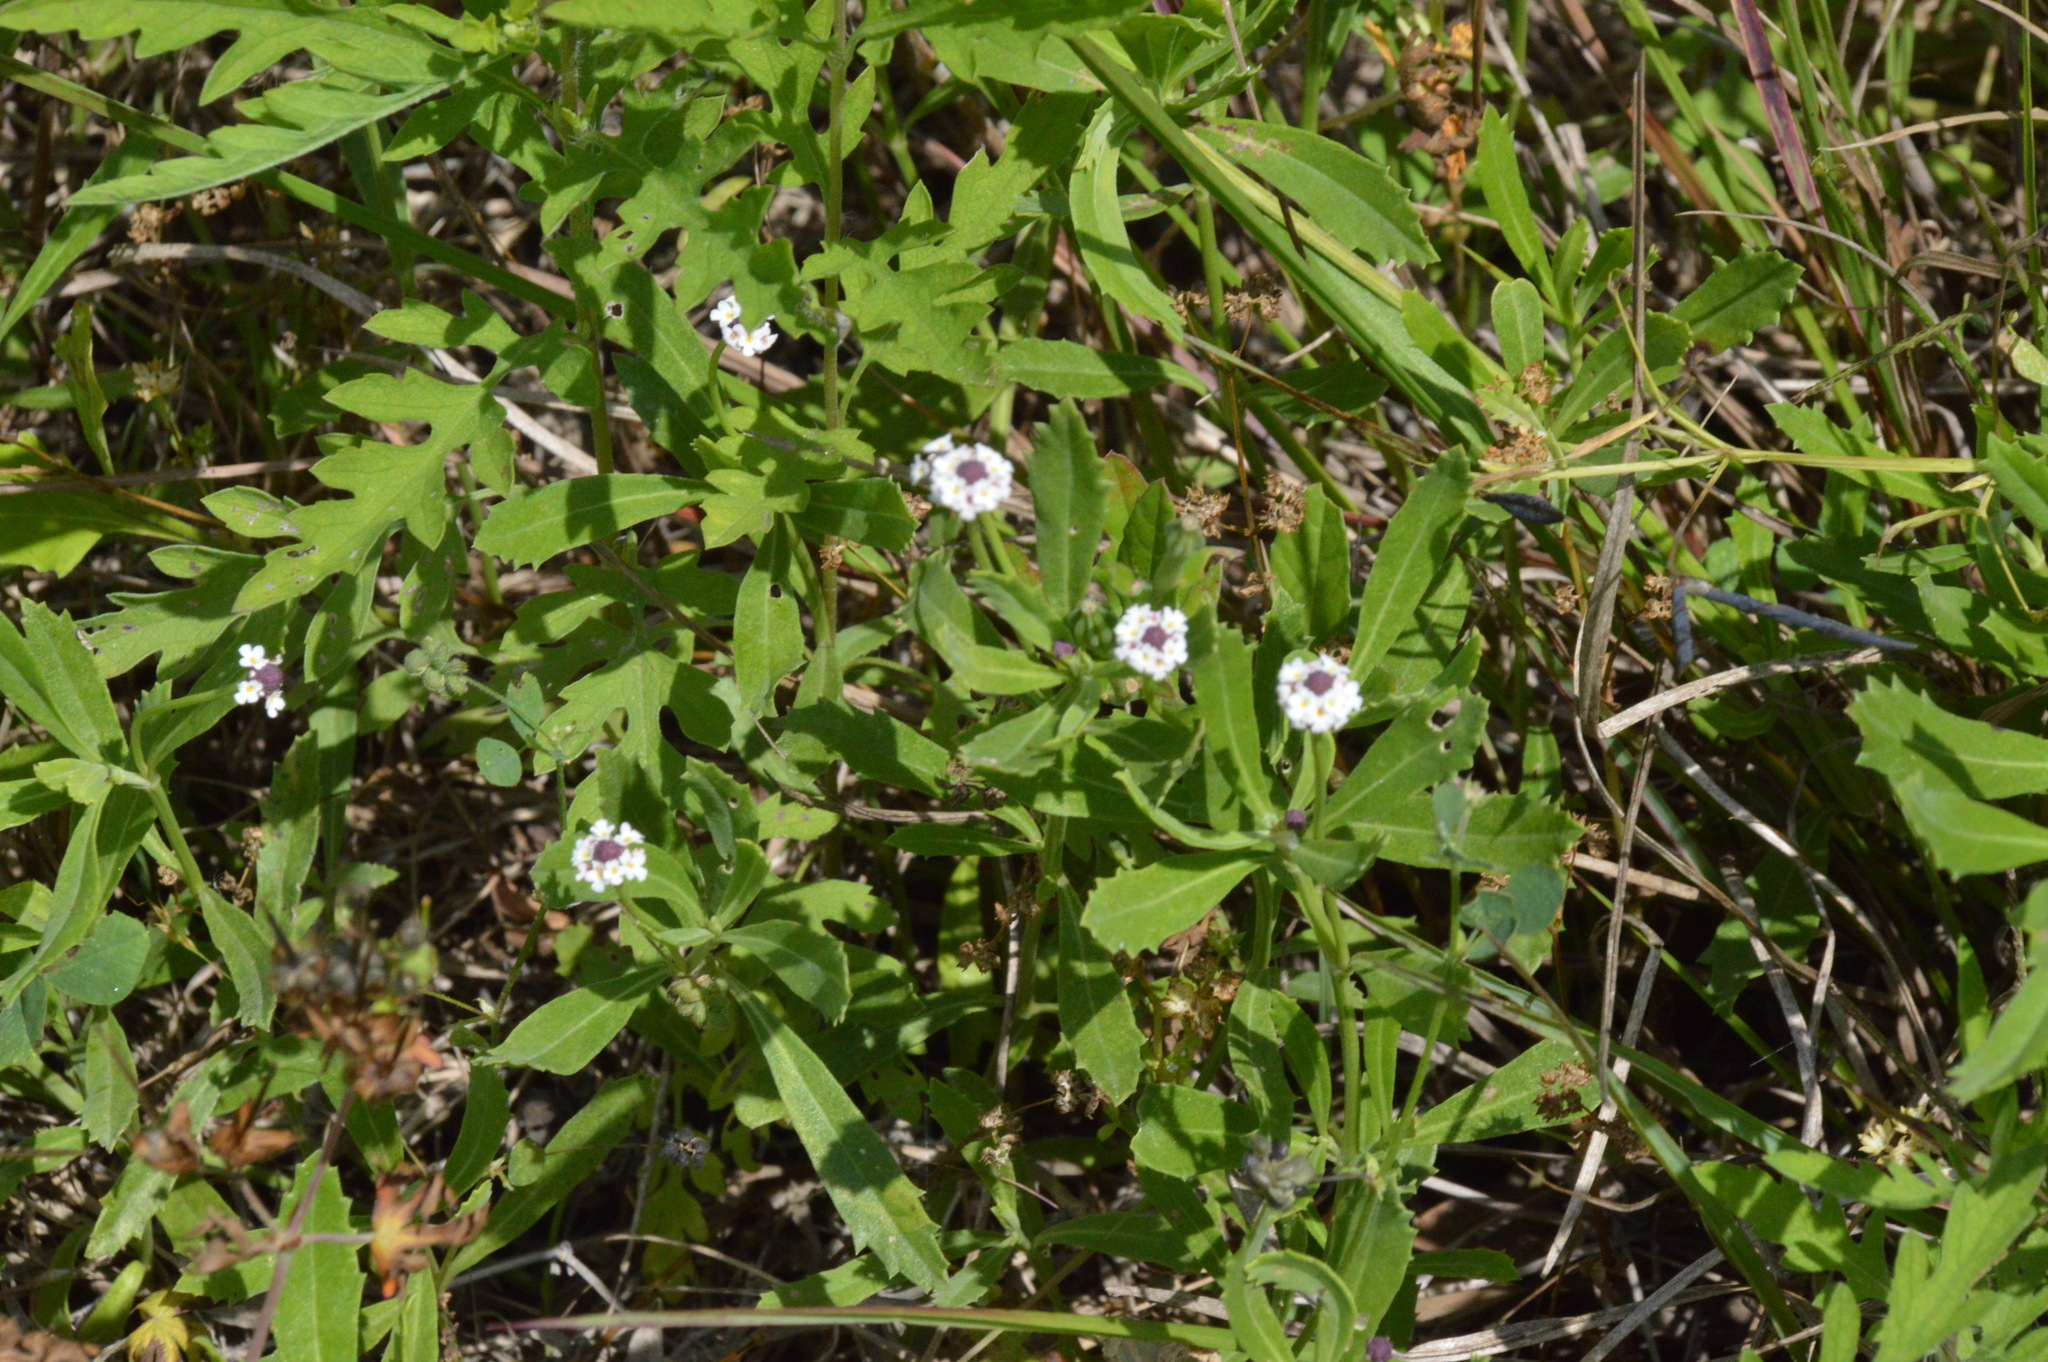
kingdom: Plantae
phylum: Tracheophyta
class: Magnoliopsida
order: Lamiales
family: Verbenaceae
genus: Phyla
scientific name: Phyla nodiflora
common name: Frogfruit
